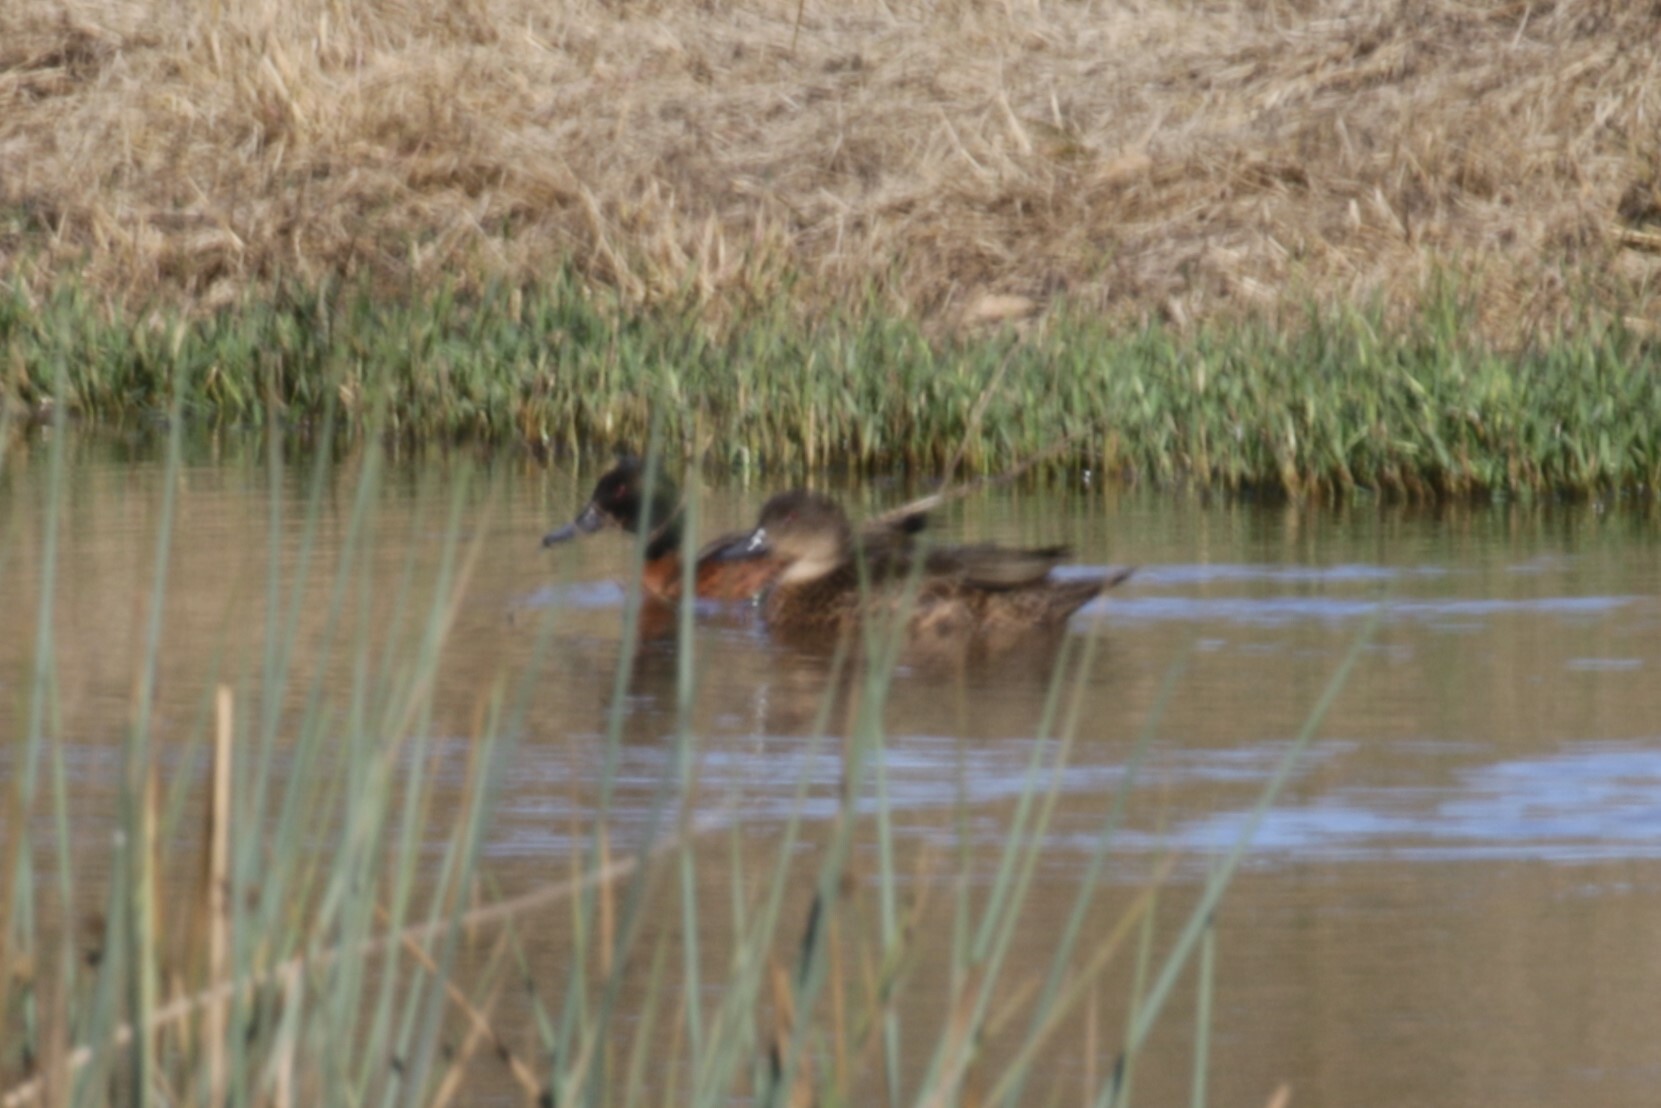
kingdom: Animalia
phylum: Chordata
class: Aves
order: Anseriformes
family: Anatidae
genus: Anas
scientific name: Anas castanea
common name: Chestnut teal
